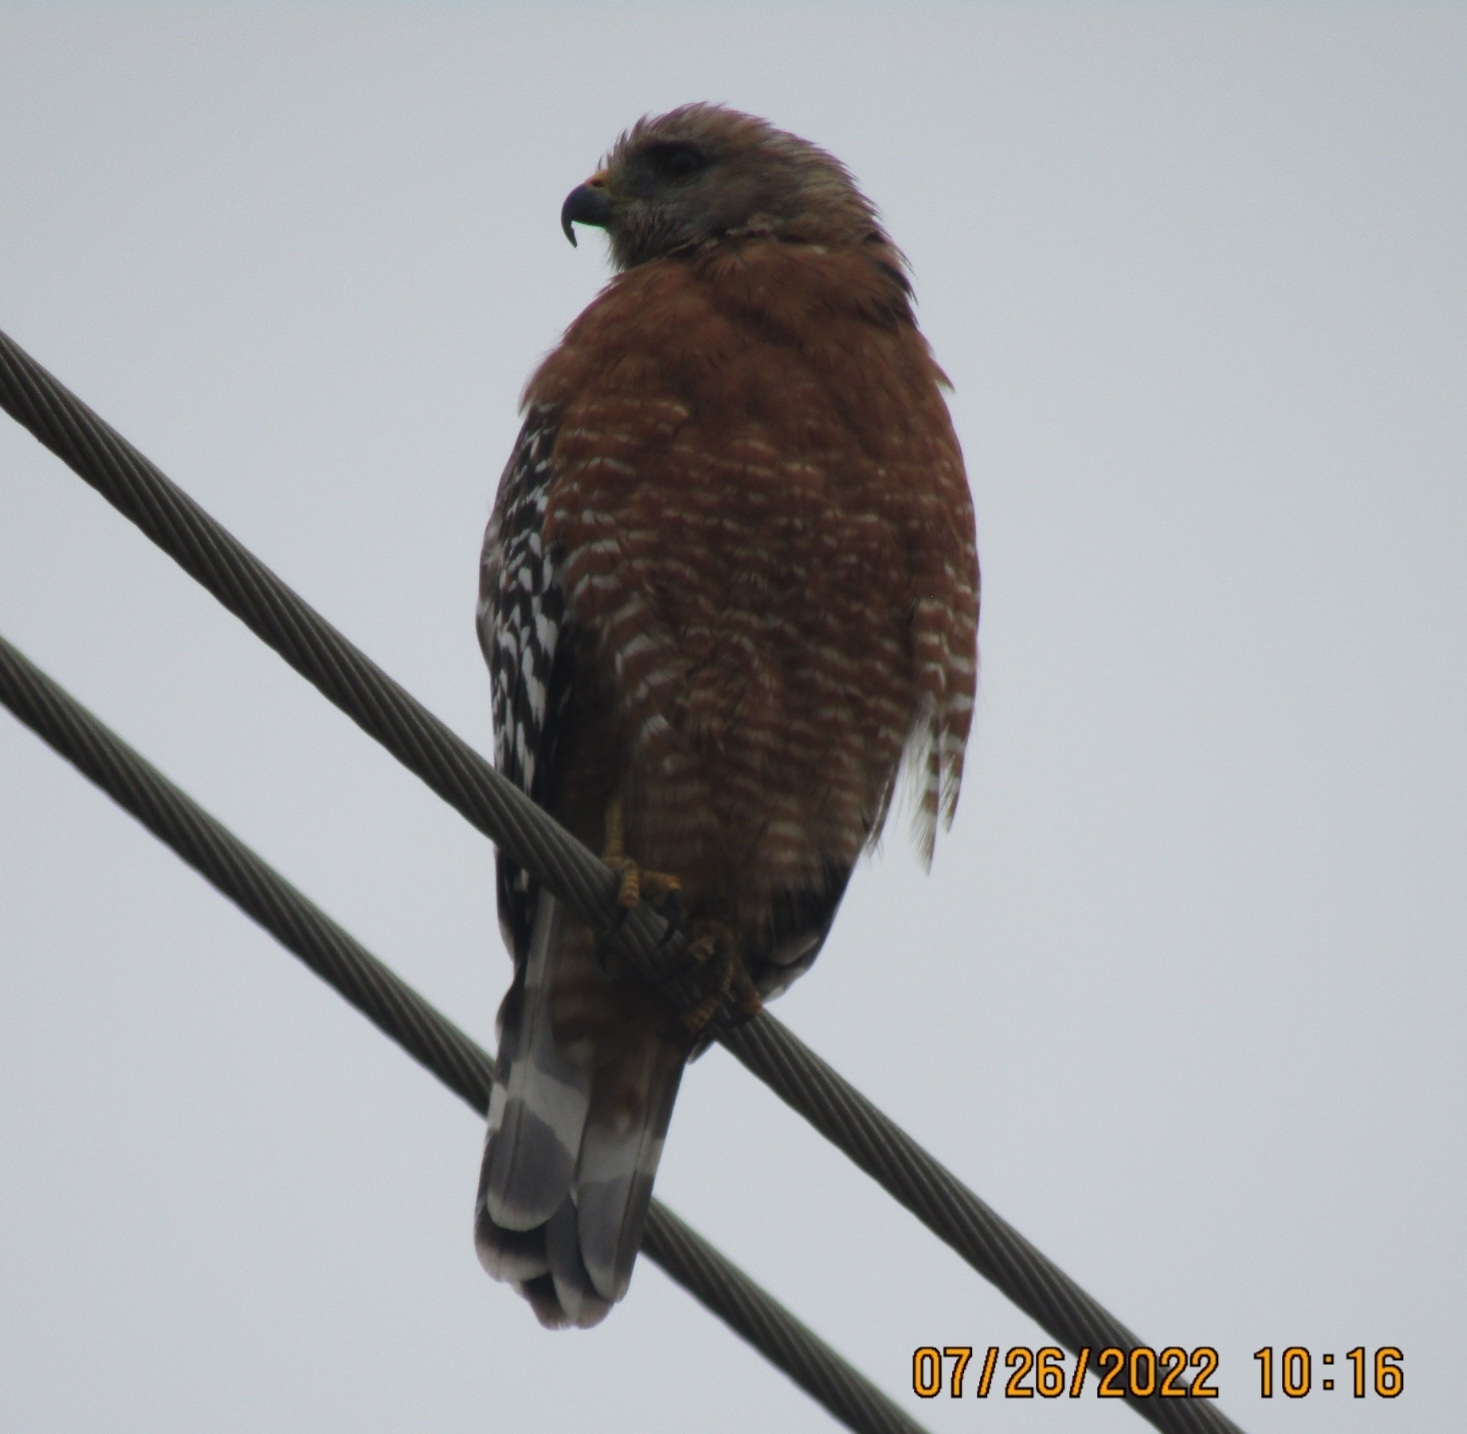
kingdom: Animalia
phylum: Chordata
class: Aves
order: Accipitriformes
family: Accipitridae
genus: Buteo
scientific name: Buteo lineatus
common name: Red-shouldered hawk
